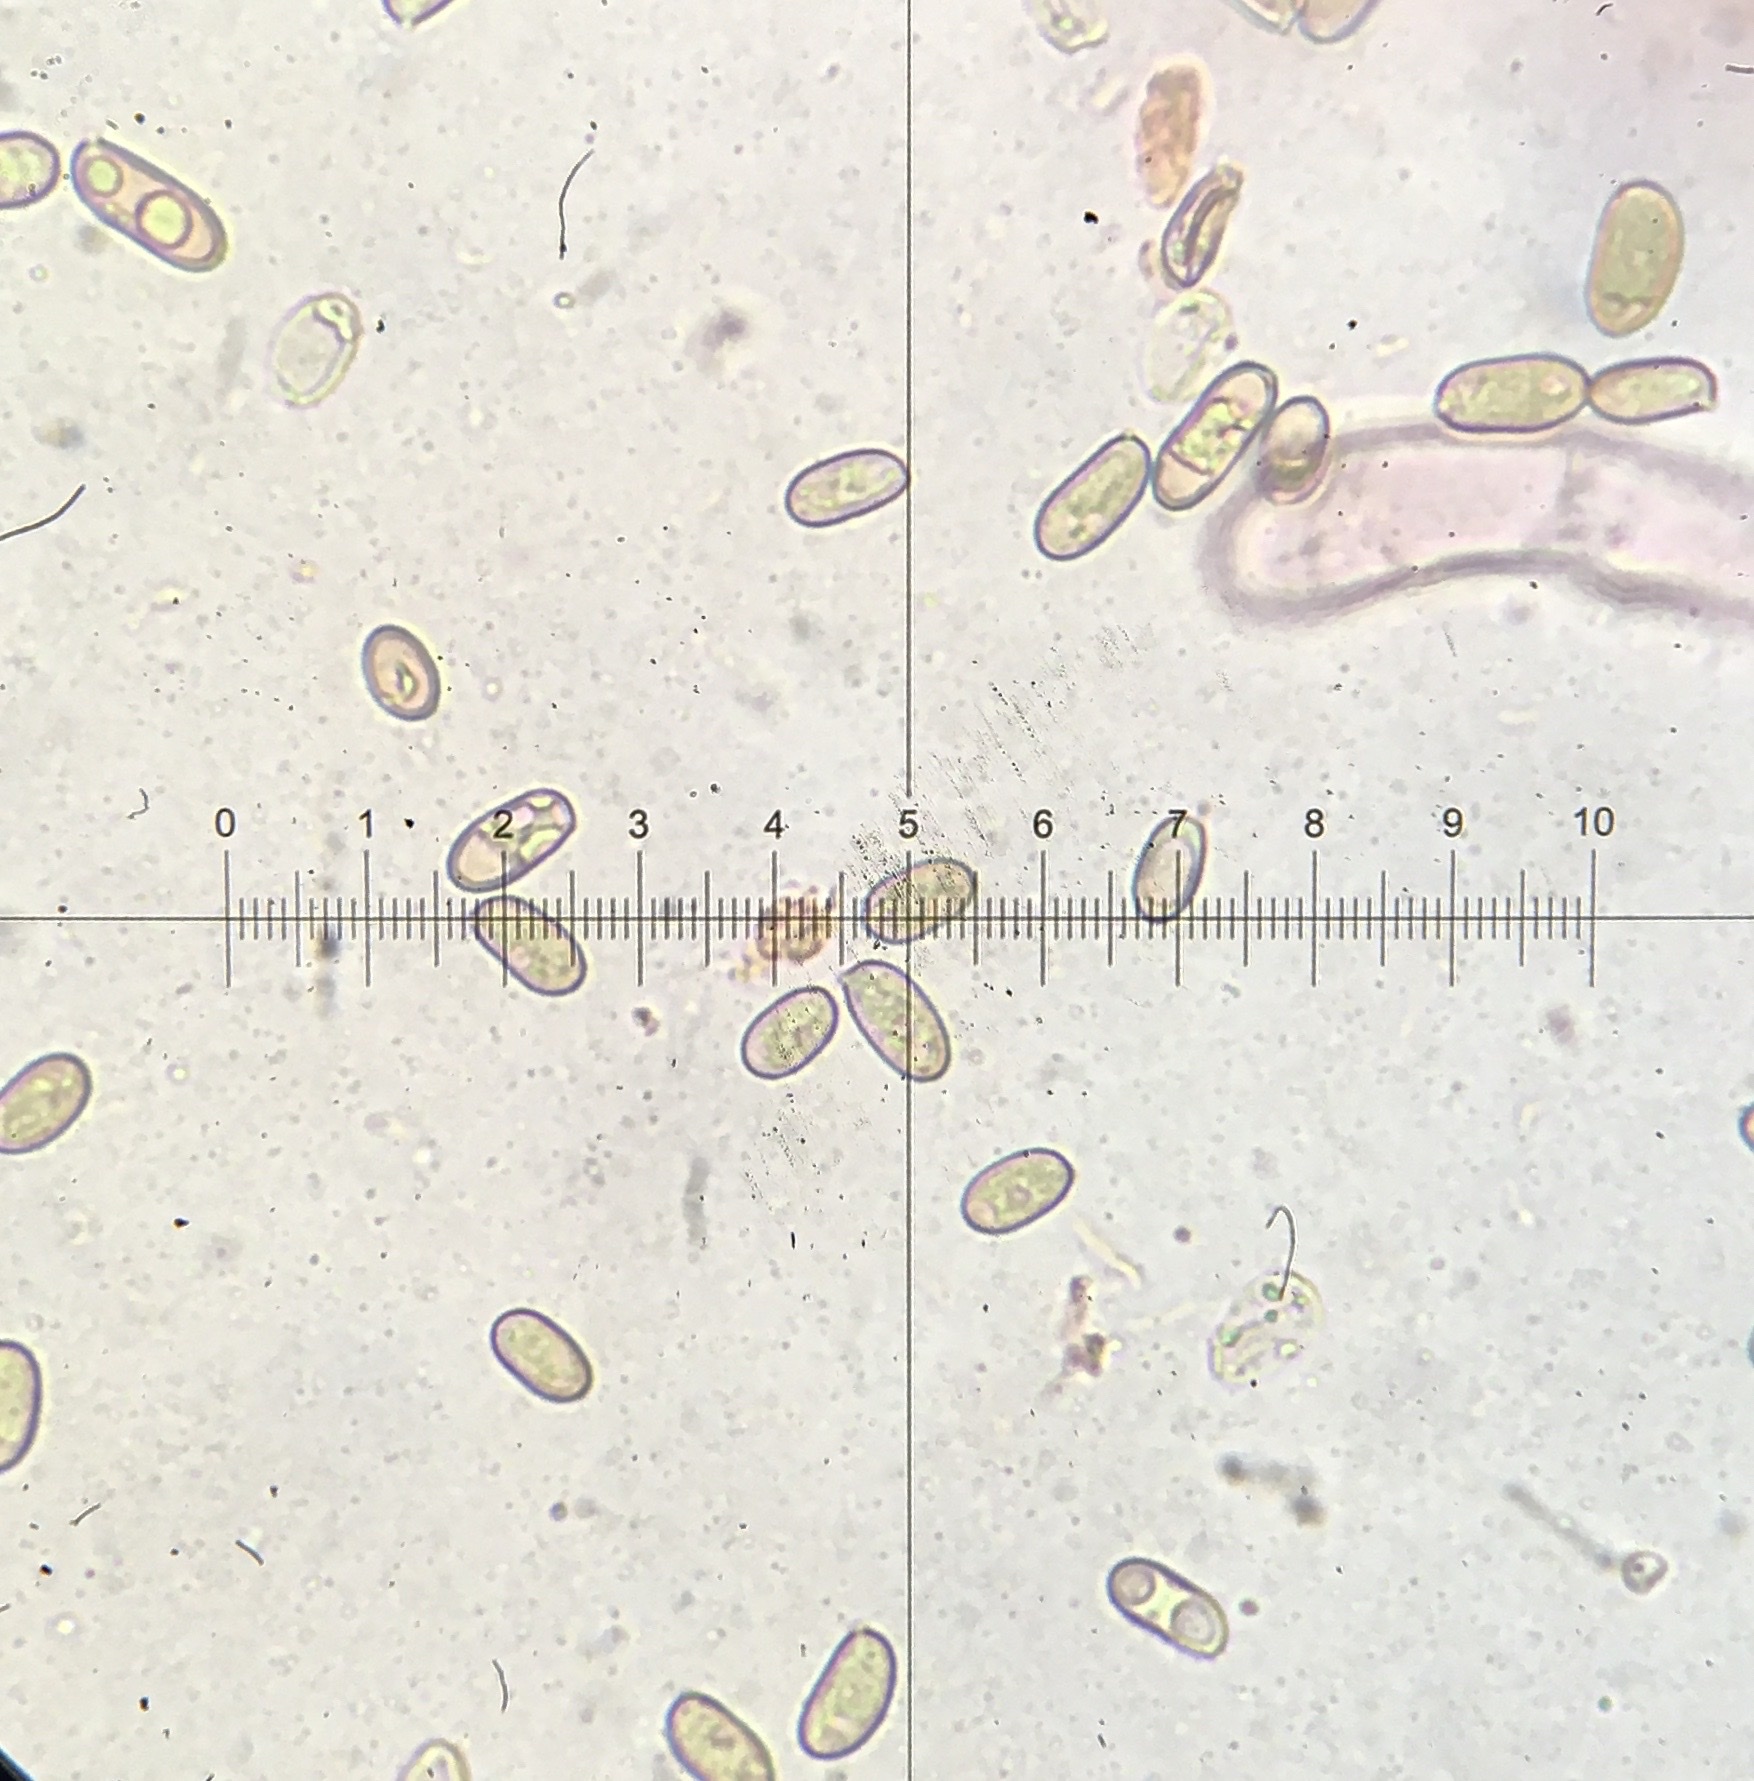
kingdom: Fungi
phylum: Basidiomycota
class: Agaricomycetes
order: Agaricales
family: Inocybaceae
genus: Pseudosperma
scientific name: Pseudosperma sororium
